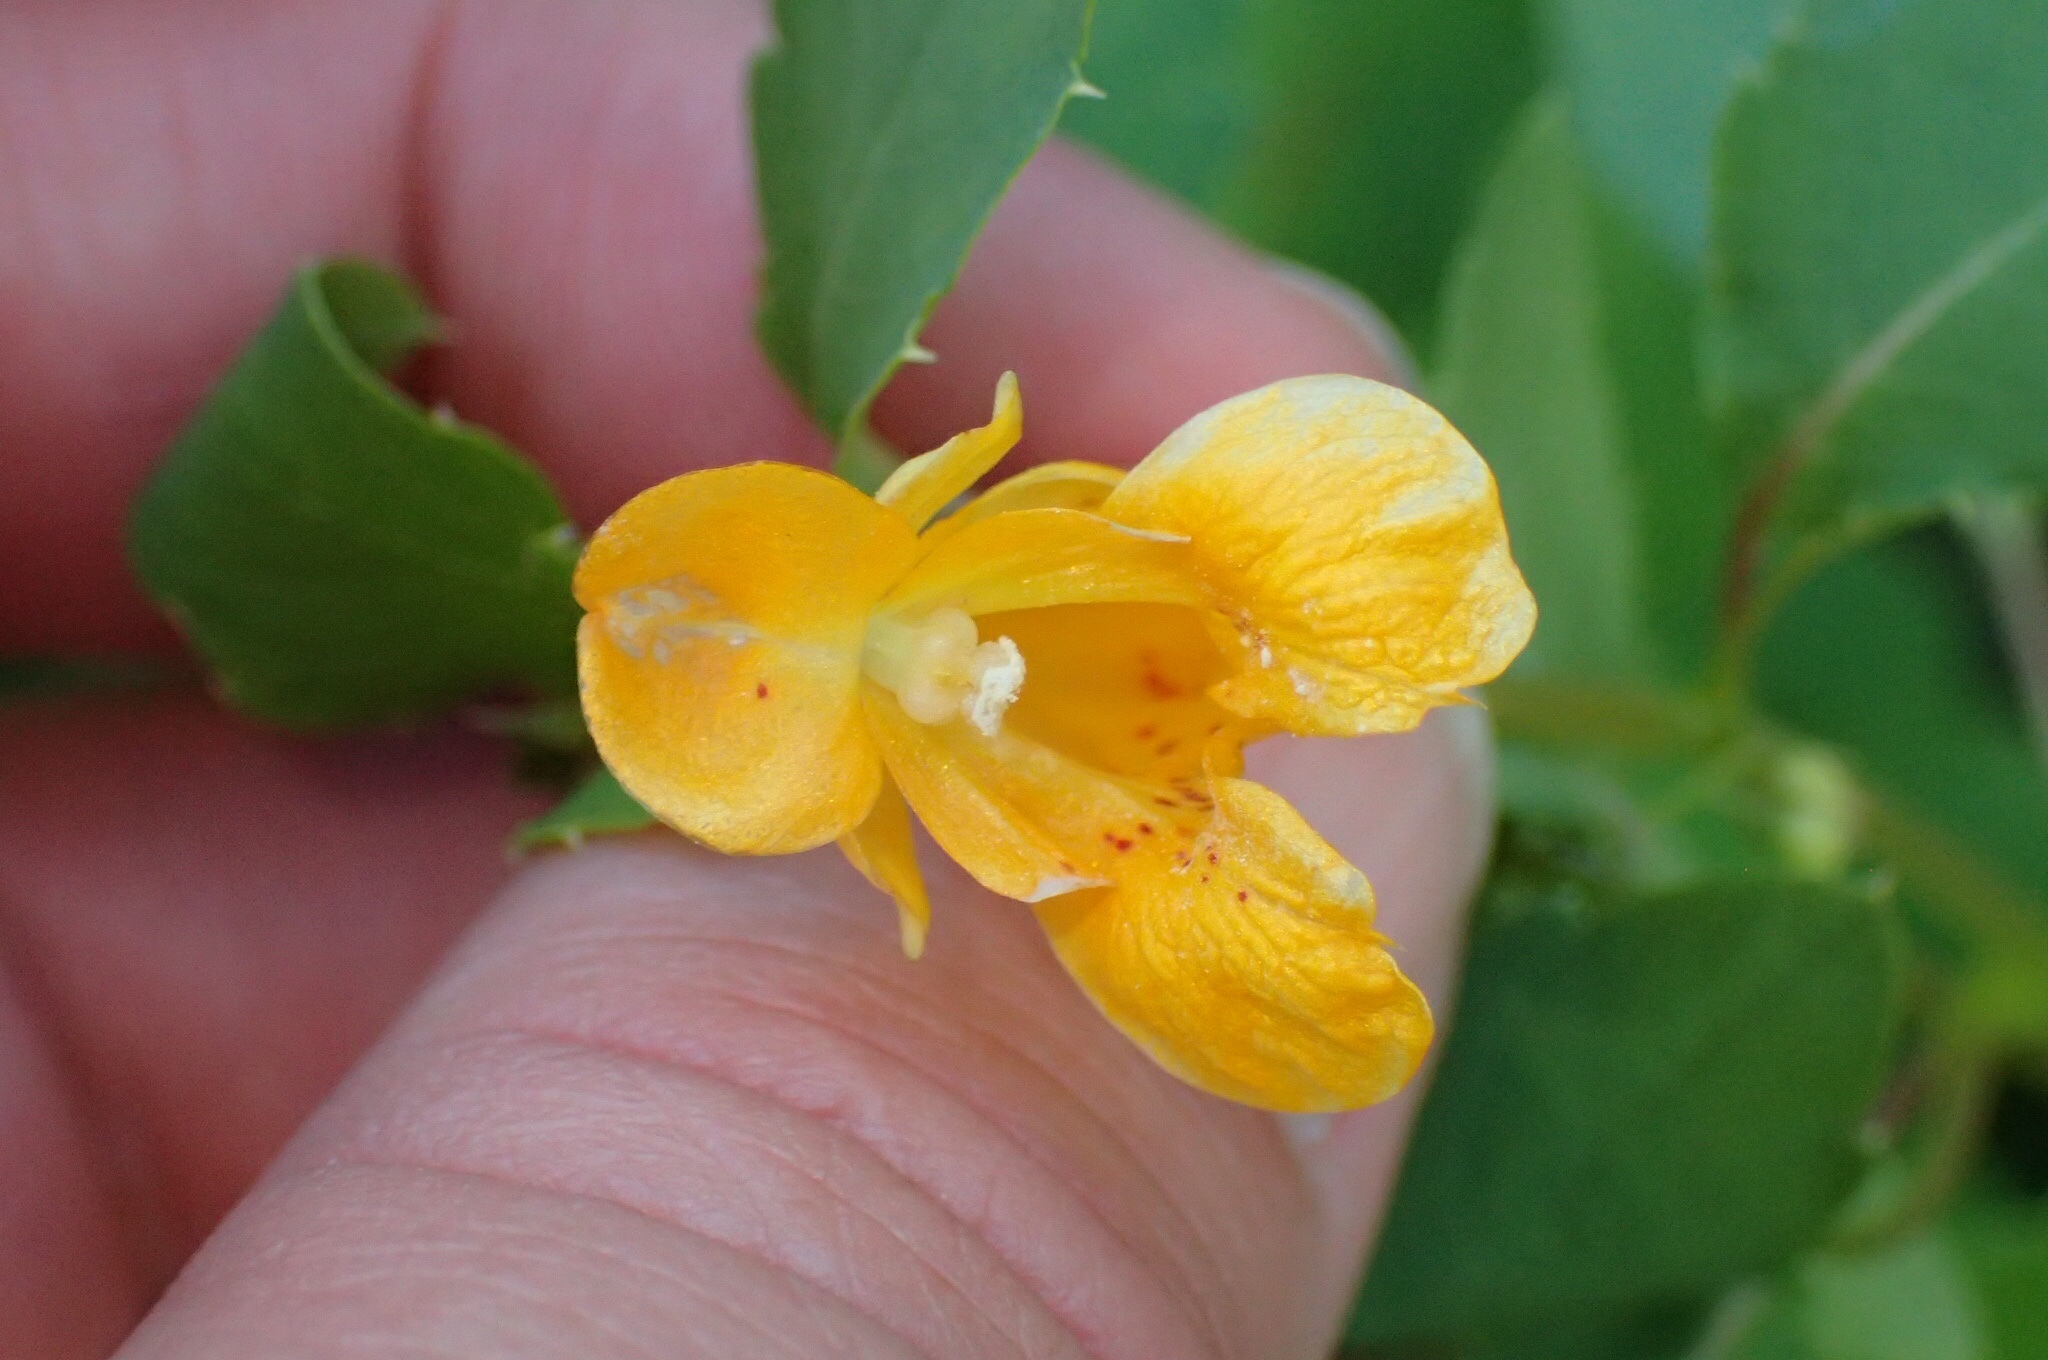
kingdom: Plantae
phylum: Tracheophyta
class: Magnoliopsida
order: Ericales
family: Balsaminaceae
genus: Impatiens
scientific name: Impatiens capensis
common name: Orange balsam
